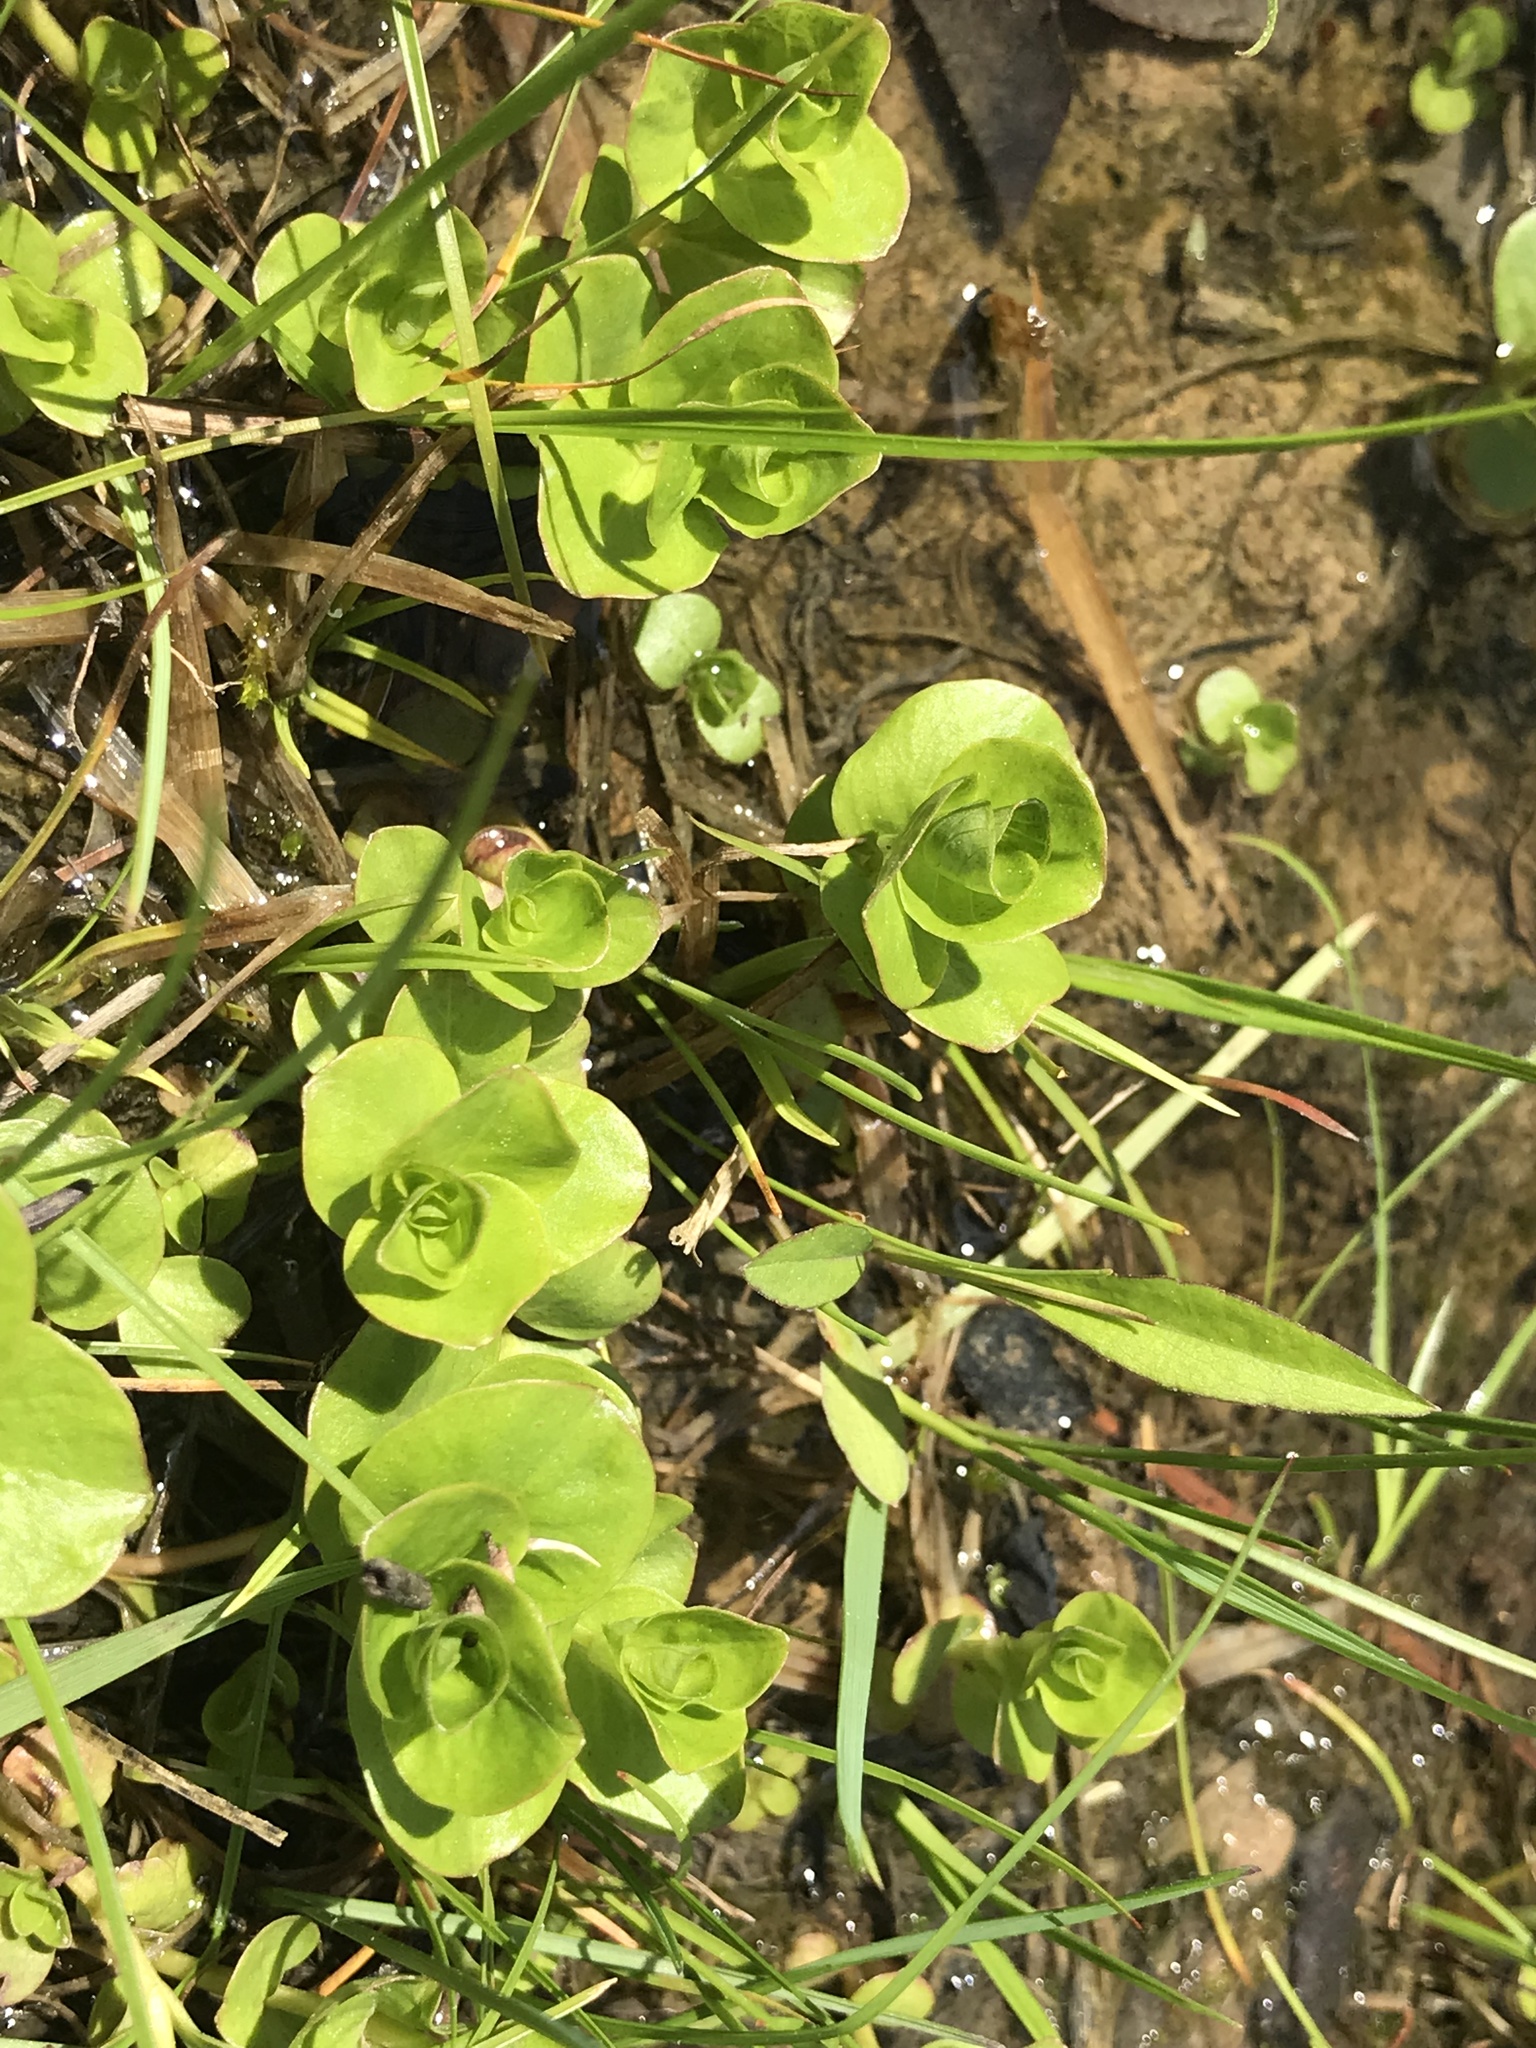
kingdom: Plantae
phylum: Tracheophyta
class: Magnoliopsida
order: Ericales
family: Primulaceae
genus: Lysimachia
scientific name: Lysimachia nummularia
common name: Moneywort
